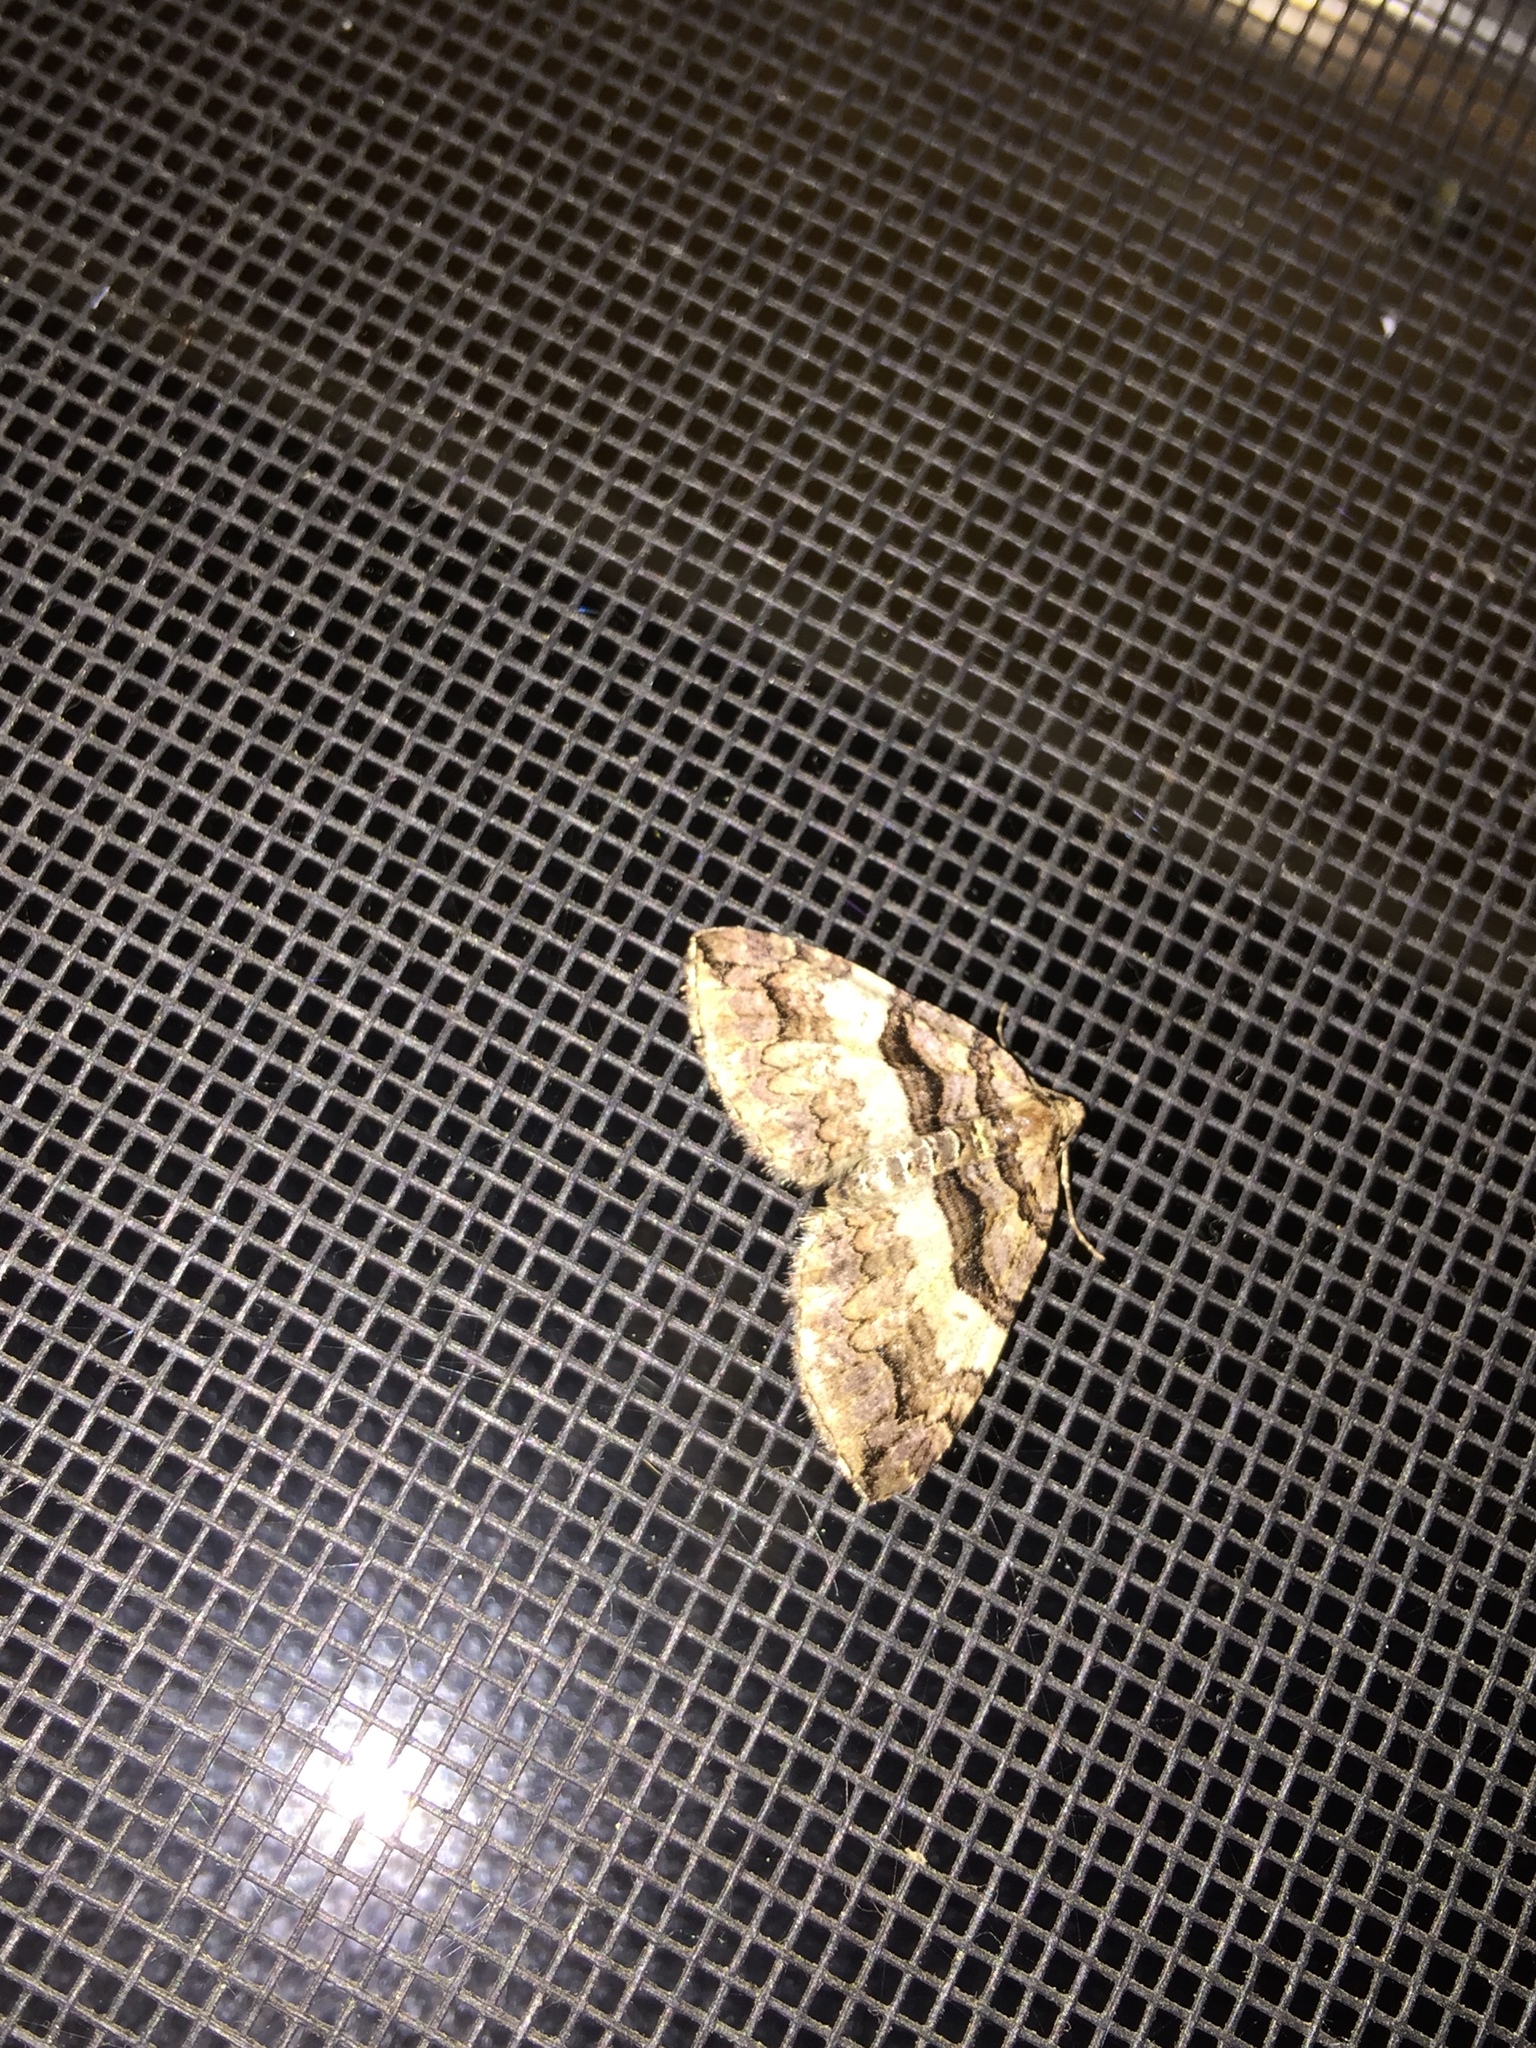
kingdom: Animalia
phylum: Arthropoda
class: Insecta
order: Lepidoptera
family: Geometridae
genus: Anticlea
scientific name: Anticlea vasiliata
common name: Variable carpet
